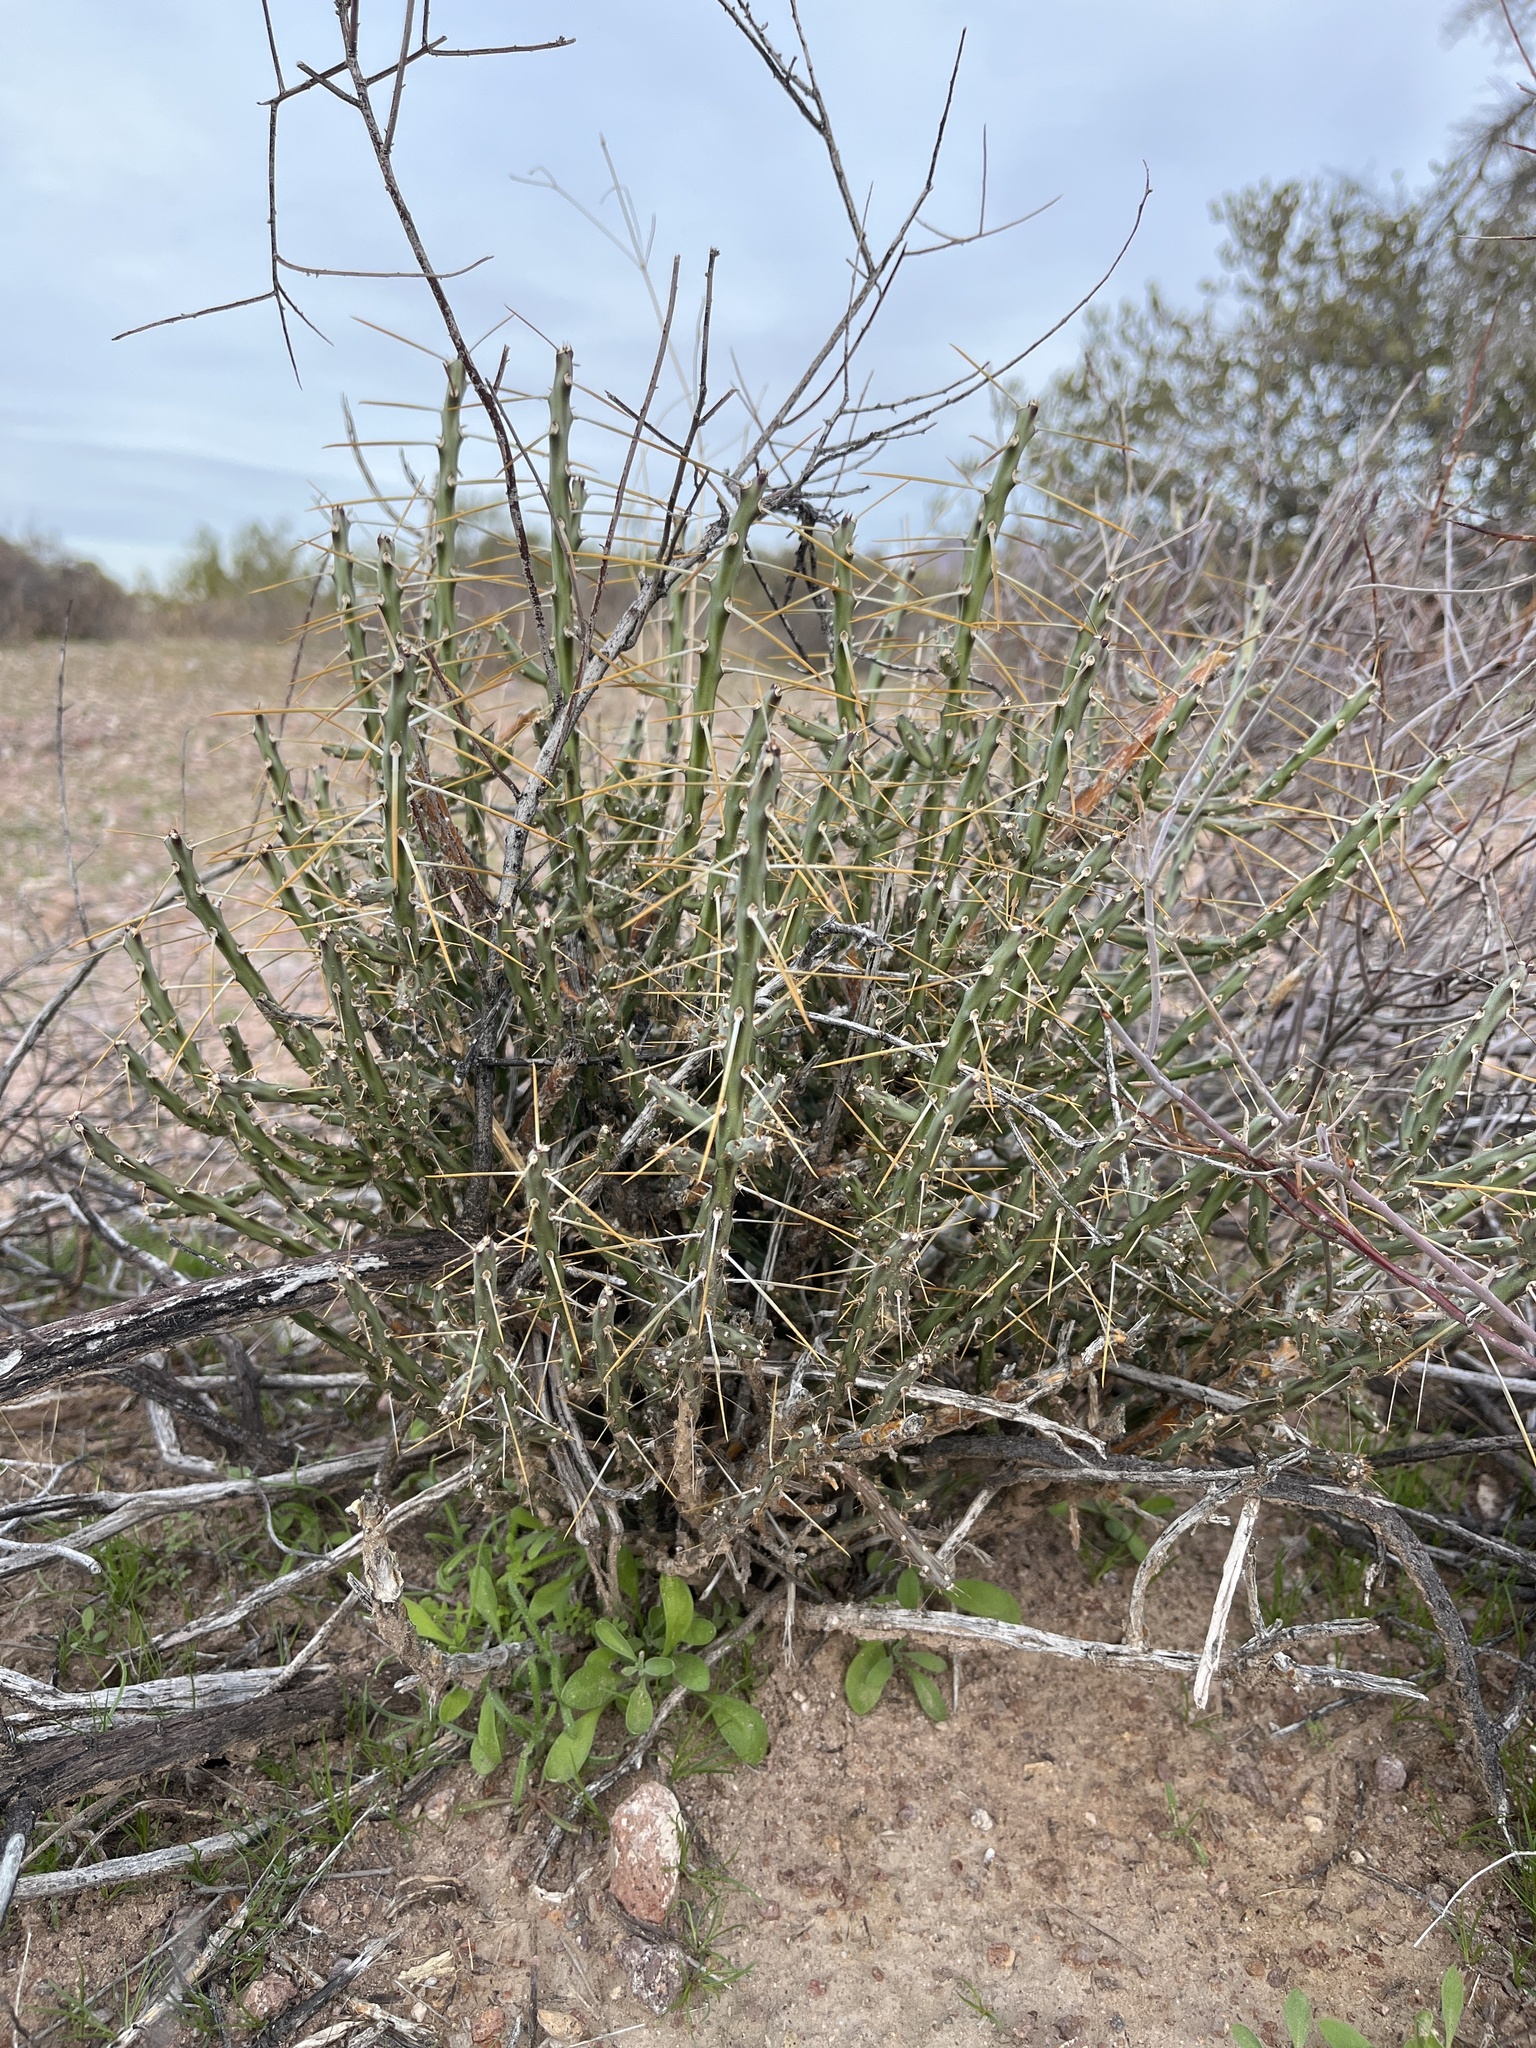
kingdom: Plantae
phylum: Tracheophyta
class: Magnoliopsida
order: Caryophyllales
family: Cactaceae
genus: Cylindropuntia
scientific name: Cylindropuntia leptocaulis
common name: Christmas cactus
